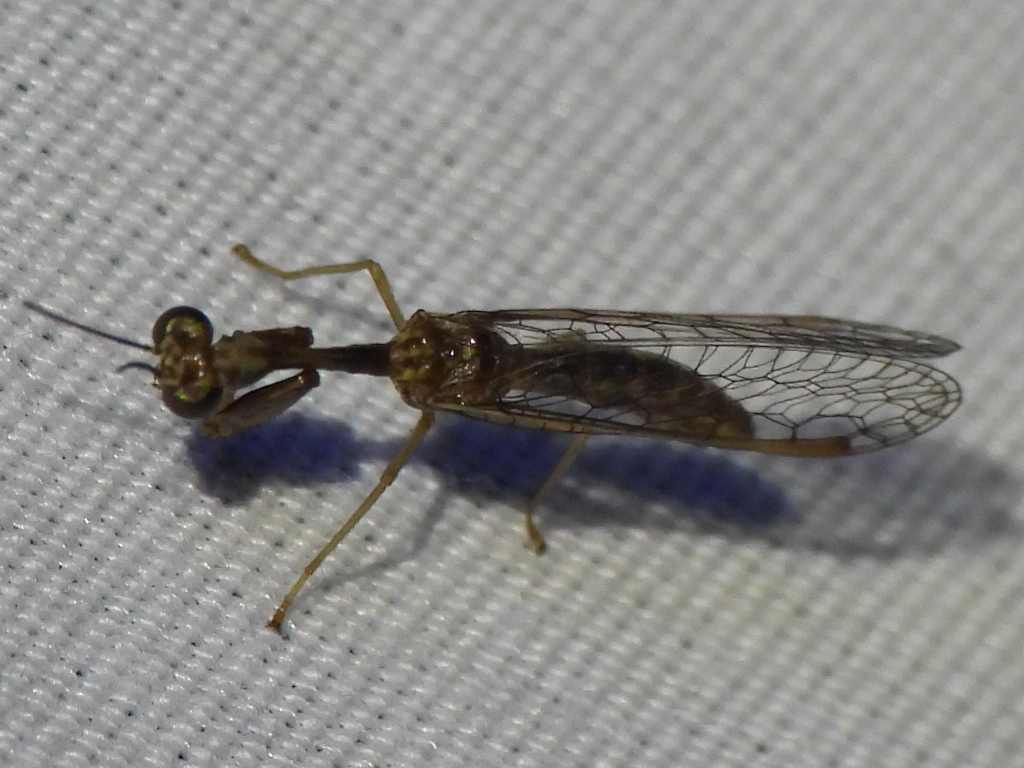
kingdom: Animalia
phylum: Arthropoda
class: Insecta
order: Neuroptera
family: Mantispidae
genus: Leptomantispa
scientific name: Leptomantispa pulchella
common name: Stevens's mantidfly
